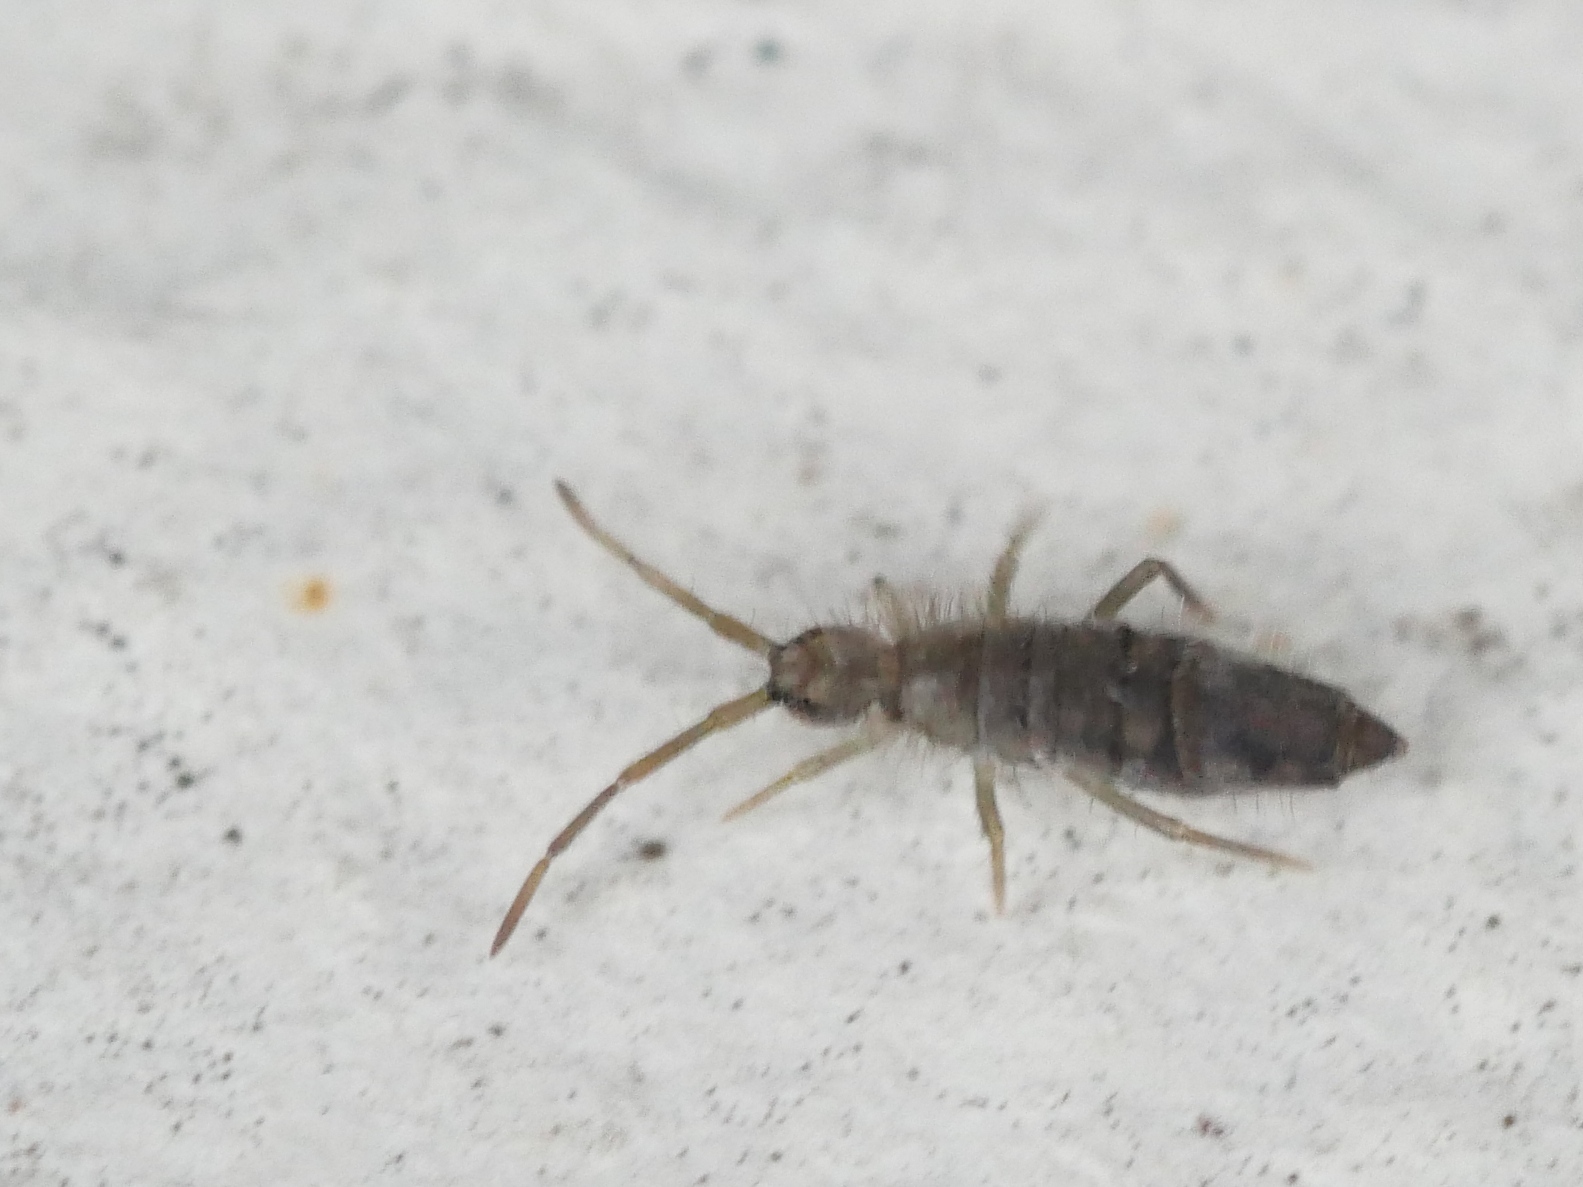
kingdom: Animalia
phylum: Arthropoda
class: Collembola
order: Entomobryomorpha
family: Entomobryidae
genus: Entomobrya
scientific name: Entomobrya nivalis
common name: Cosmopolitan springtail
